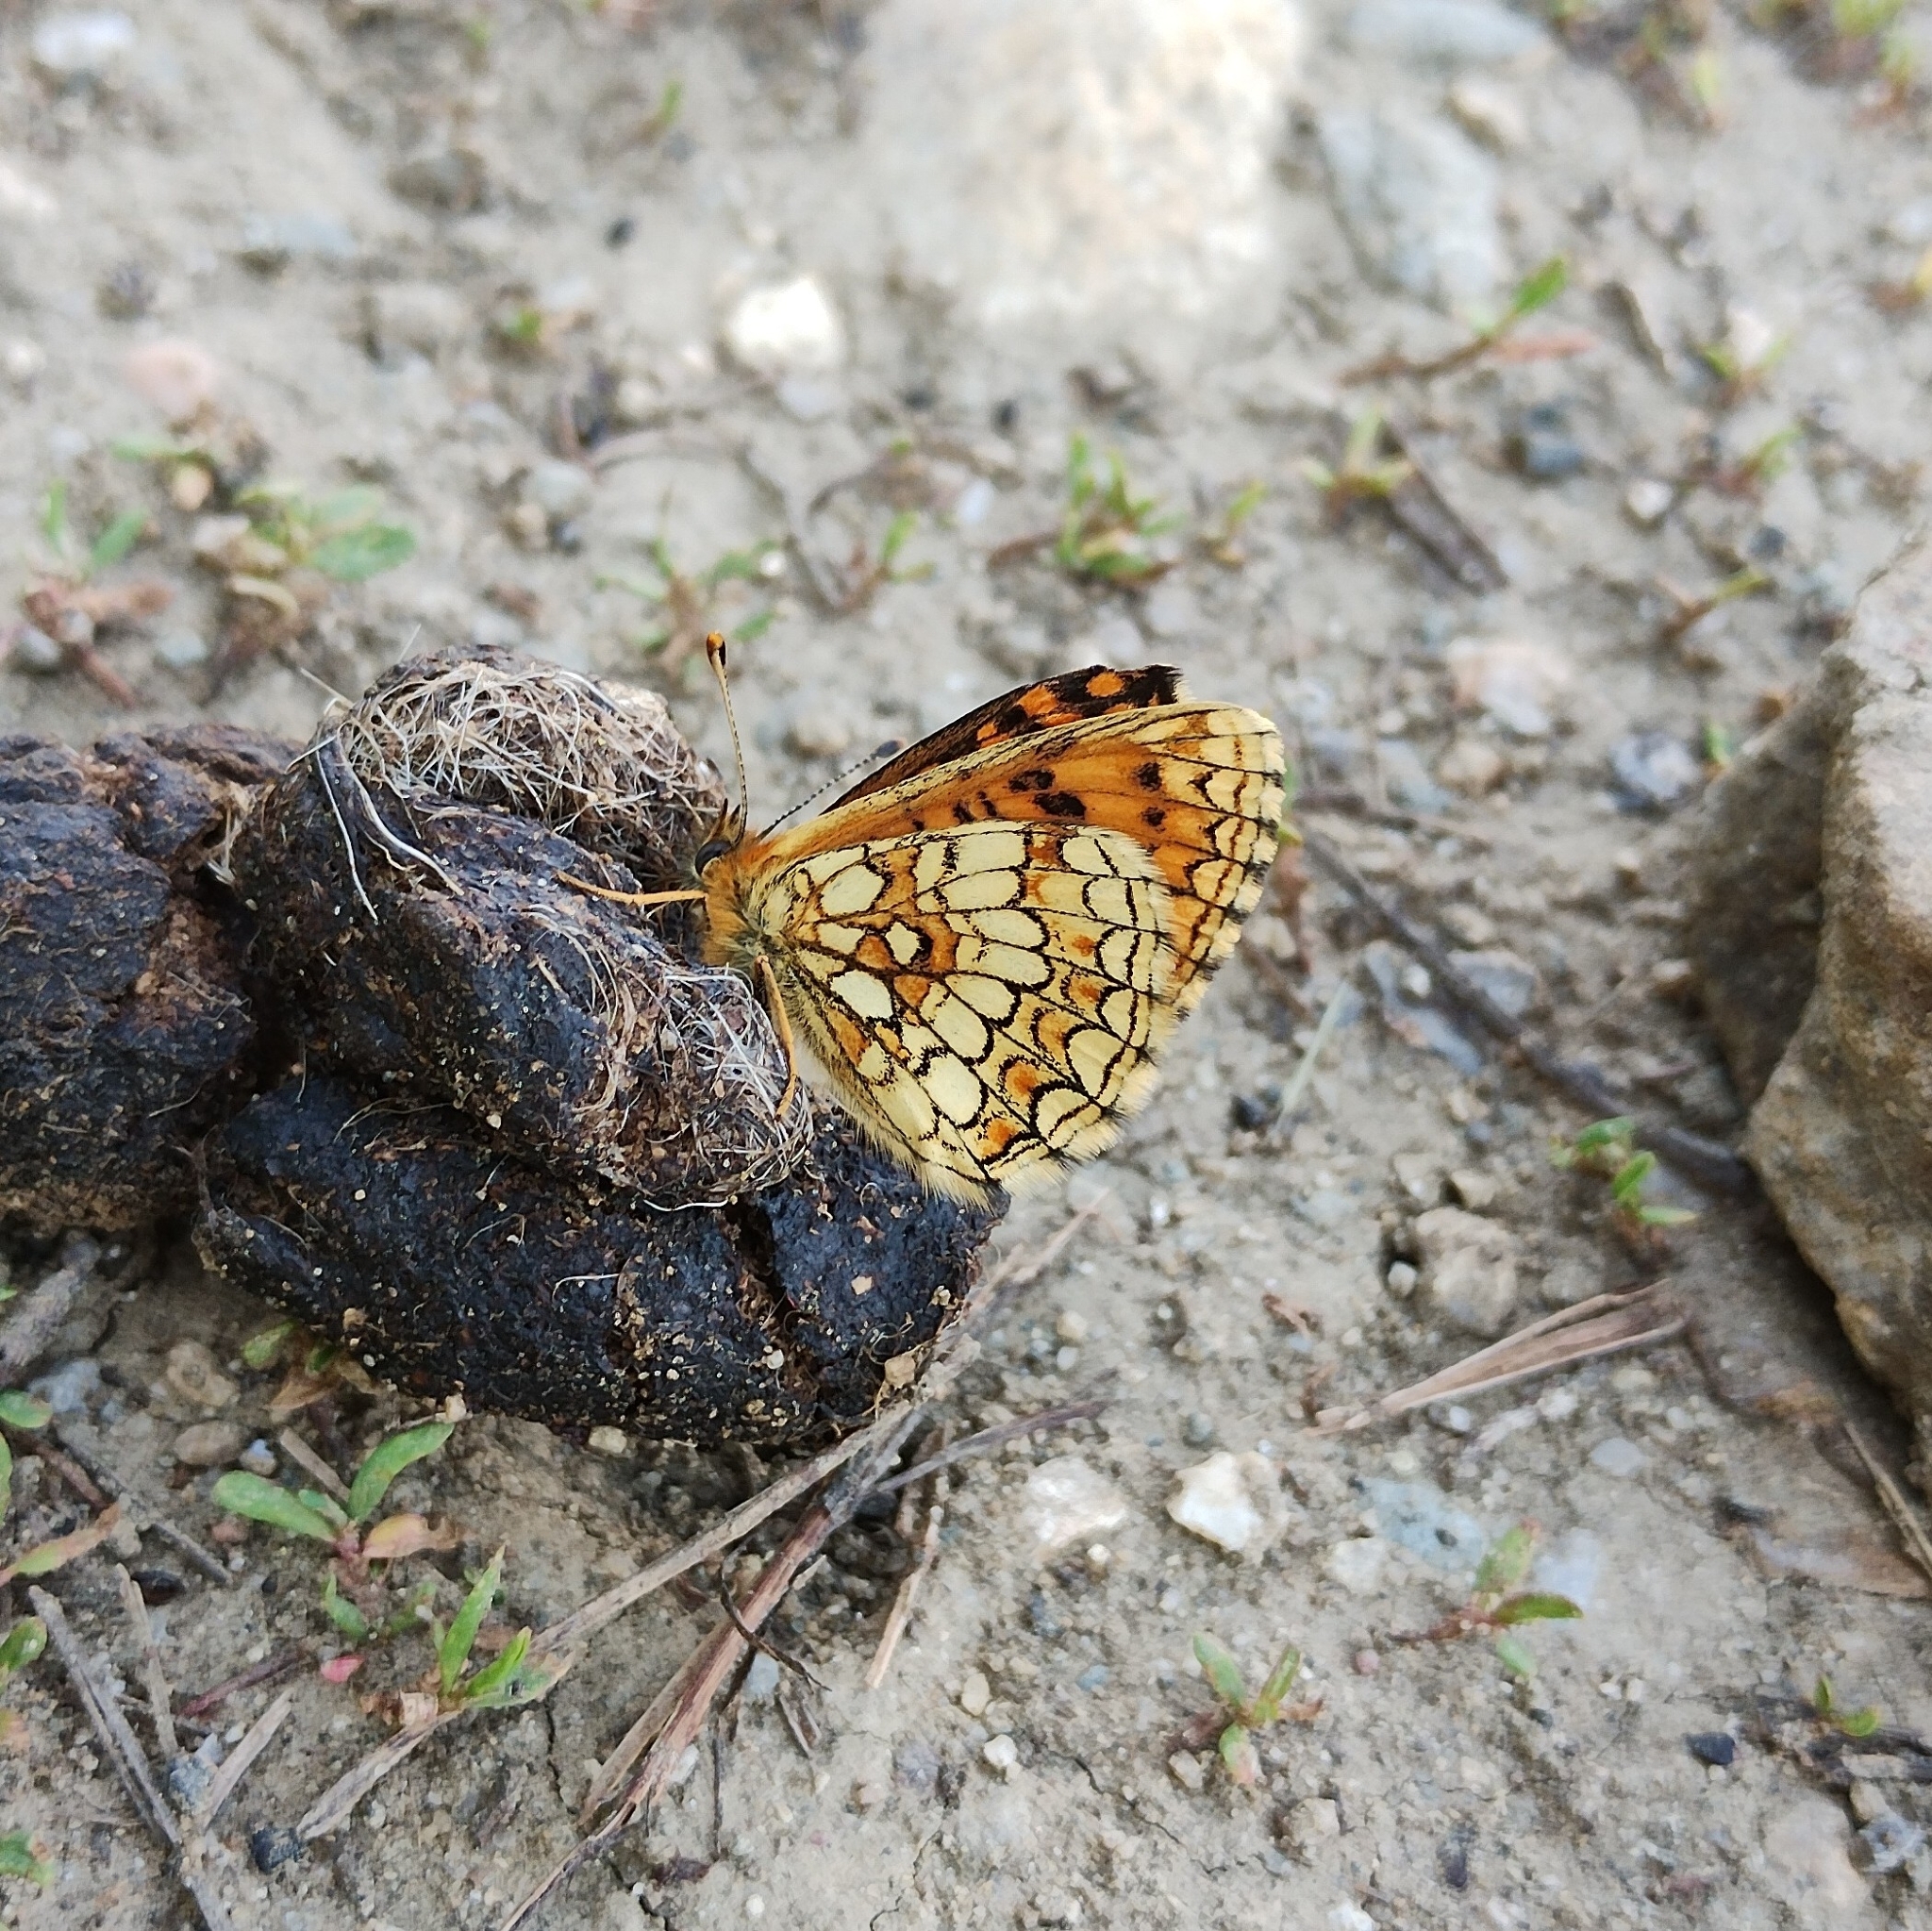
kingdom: Animalia
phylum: Arthropoda
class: Insecta
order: Lepidoptera
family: Nymphalidae
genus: Melitaea
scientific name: Melitaea athalia
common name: Heath fritillary
